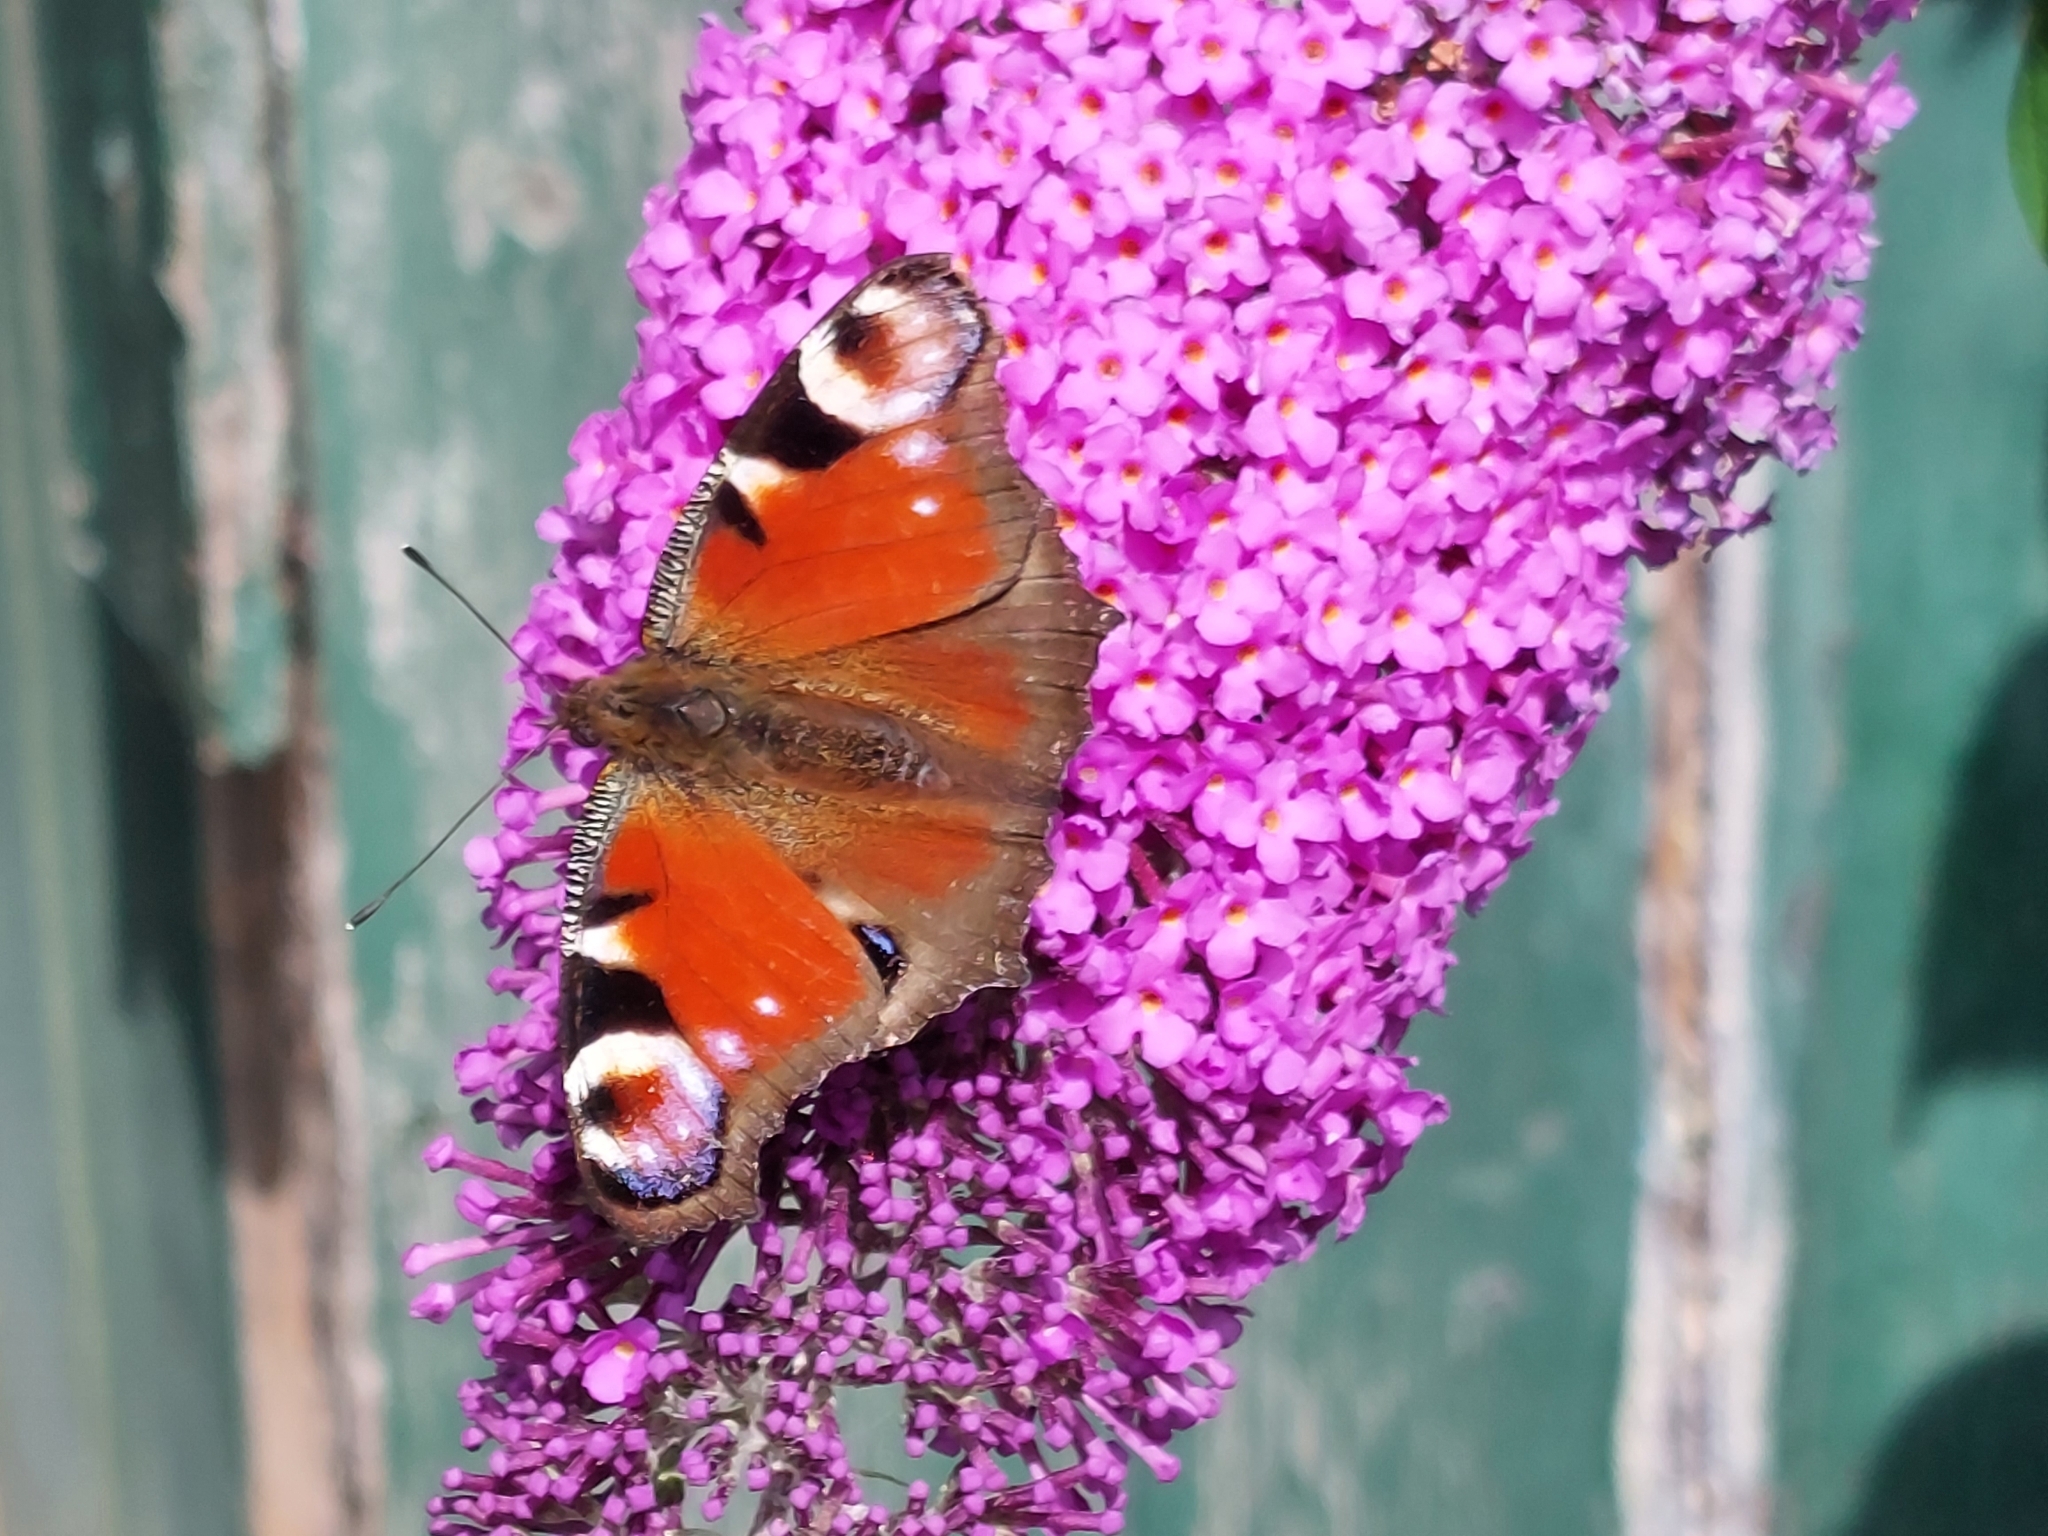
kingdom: Animalia
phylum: Arthropoda
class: Insecta
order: Lepidoptera
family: Nymphalidae
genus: Aglais
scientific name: Aglais io
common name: Peacock
